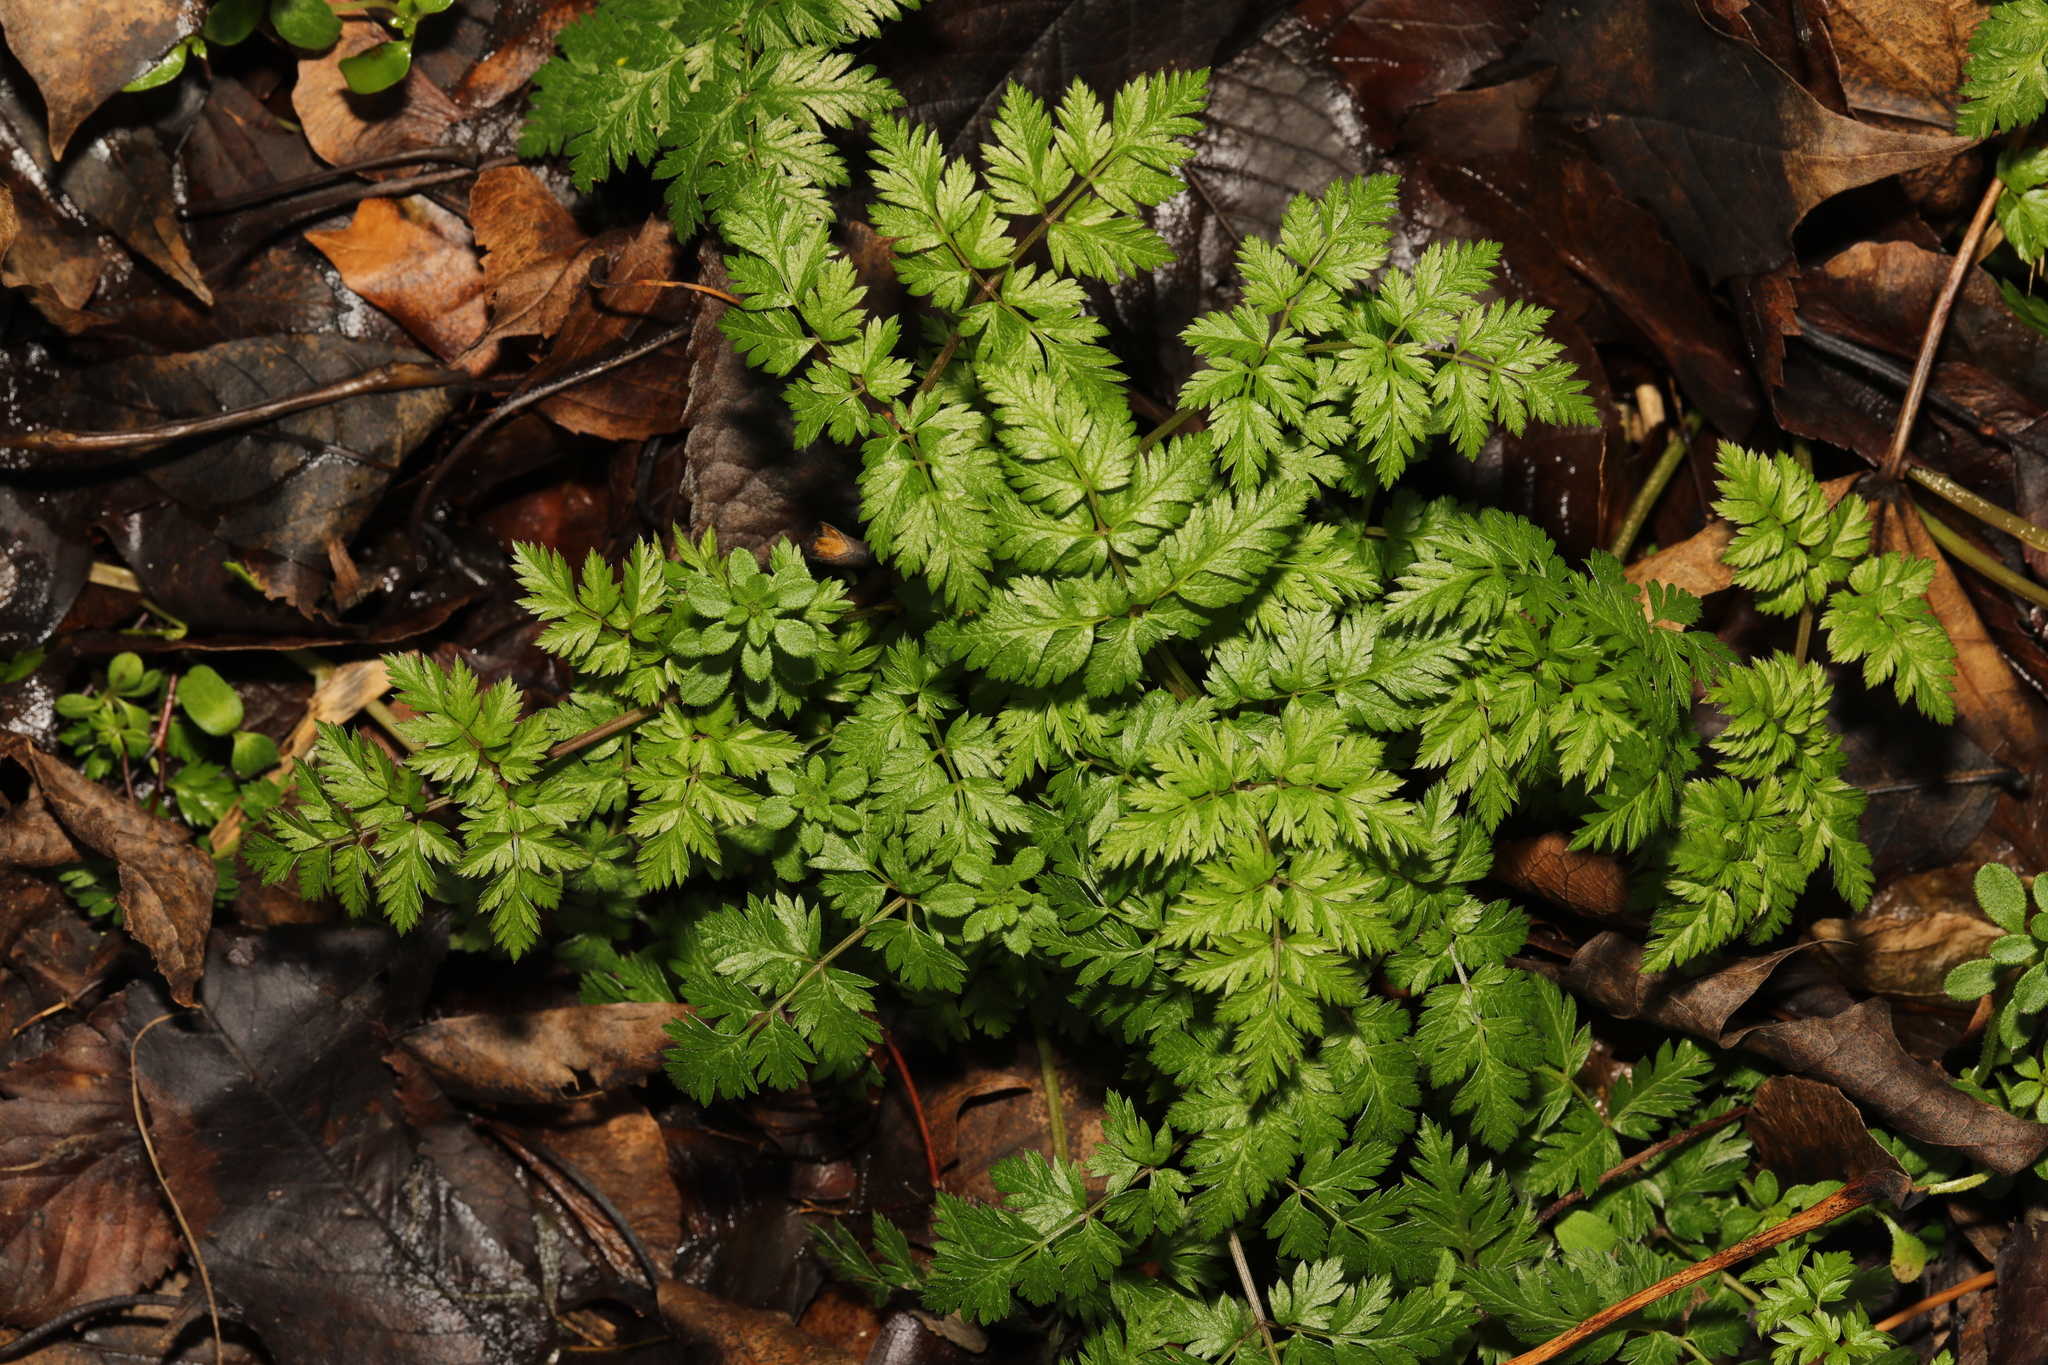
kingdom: Plantae
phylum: Tracheophyta
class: Magnoliopsida
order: Apiales
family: Apiaceae
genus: Anthriscus
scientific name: Anthriscus sylvestris
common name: Cow parsley
